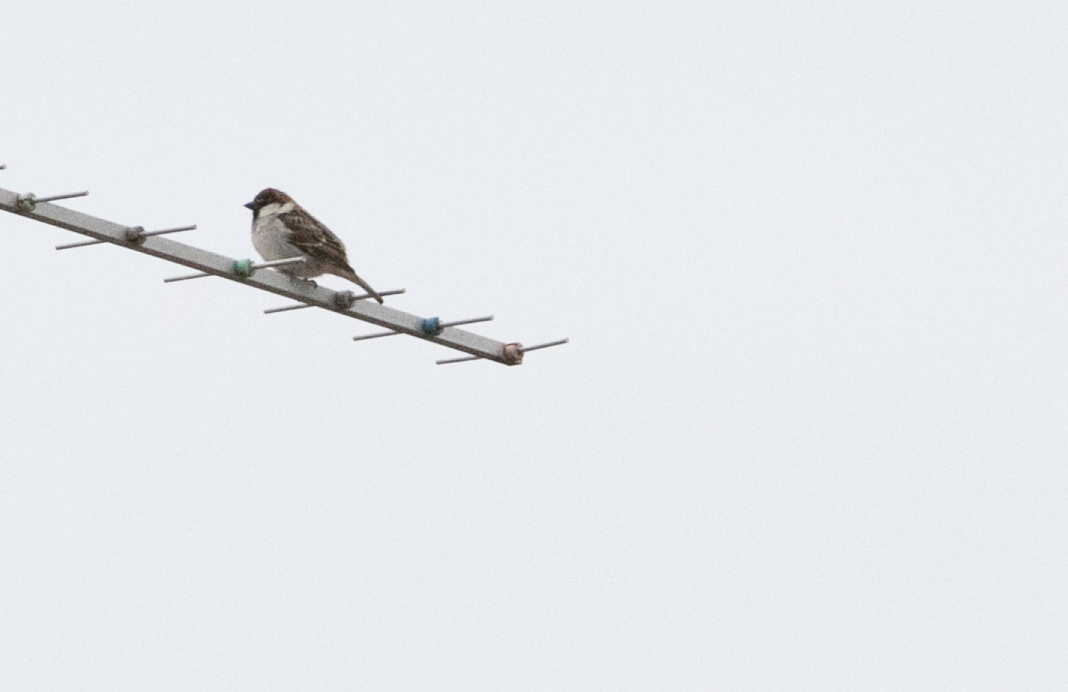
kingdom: Animalia
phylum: Chordata
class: Aves
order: Passeriformes
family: Passeridae
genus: Passer
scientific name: Passer italiae
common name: Italian sparrow
